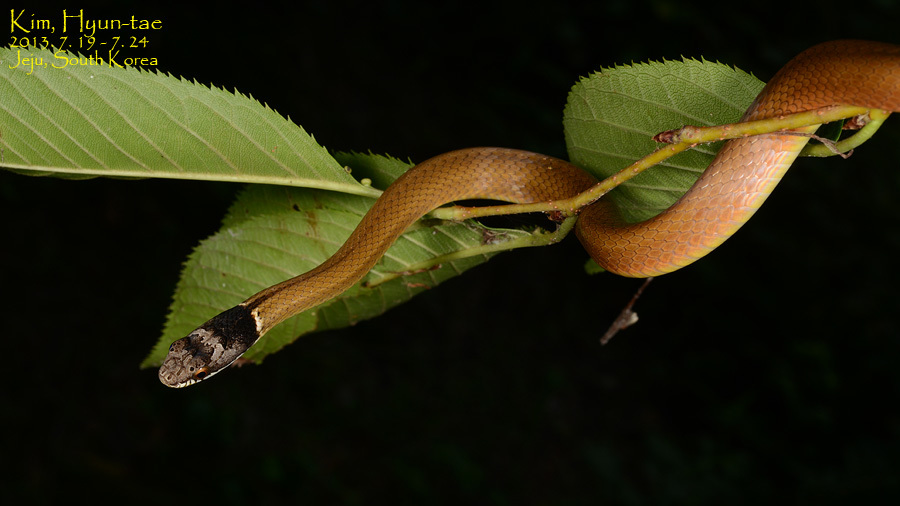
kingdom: Animalia
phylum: Chordata
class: Squamata
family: Colubridae
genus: Sibynophis
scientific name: Sibynophis chinensis
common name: Chinese many-tooth snake
